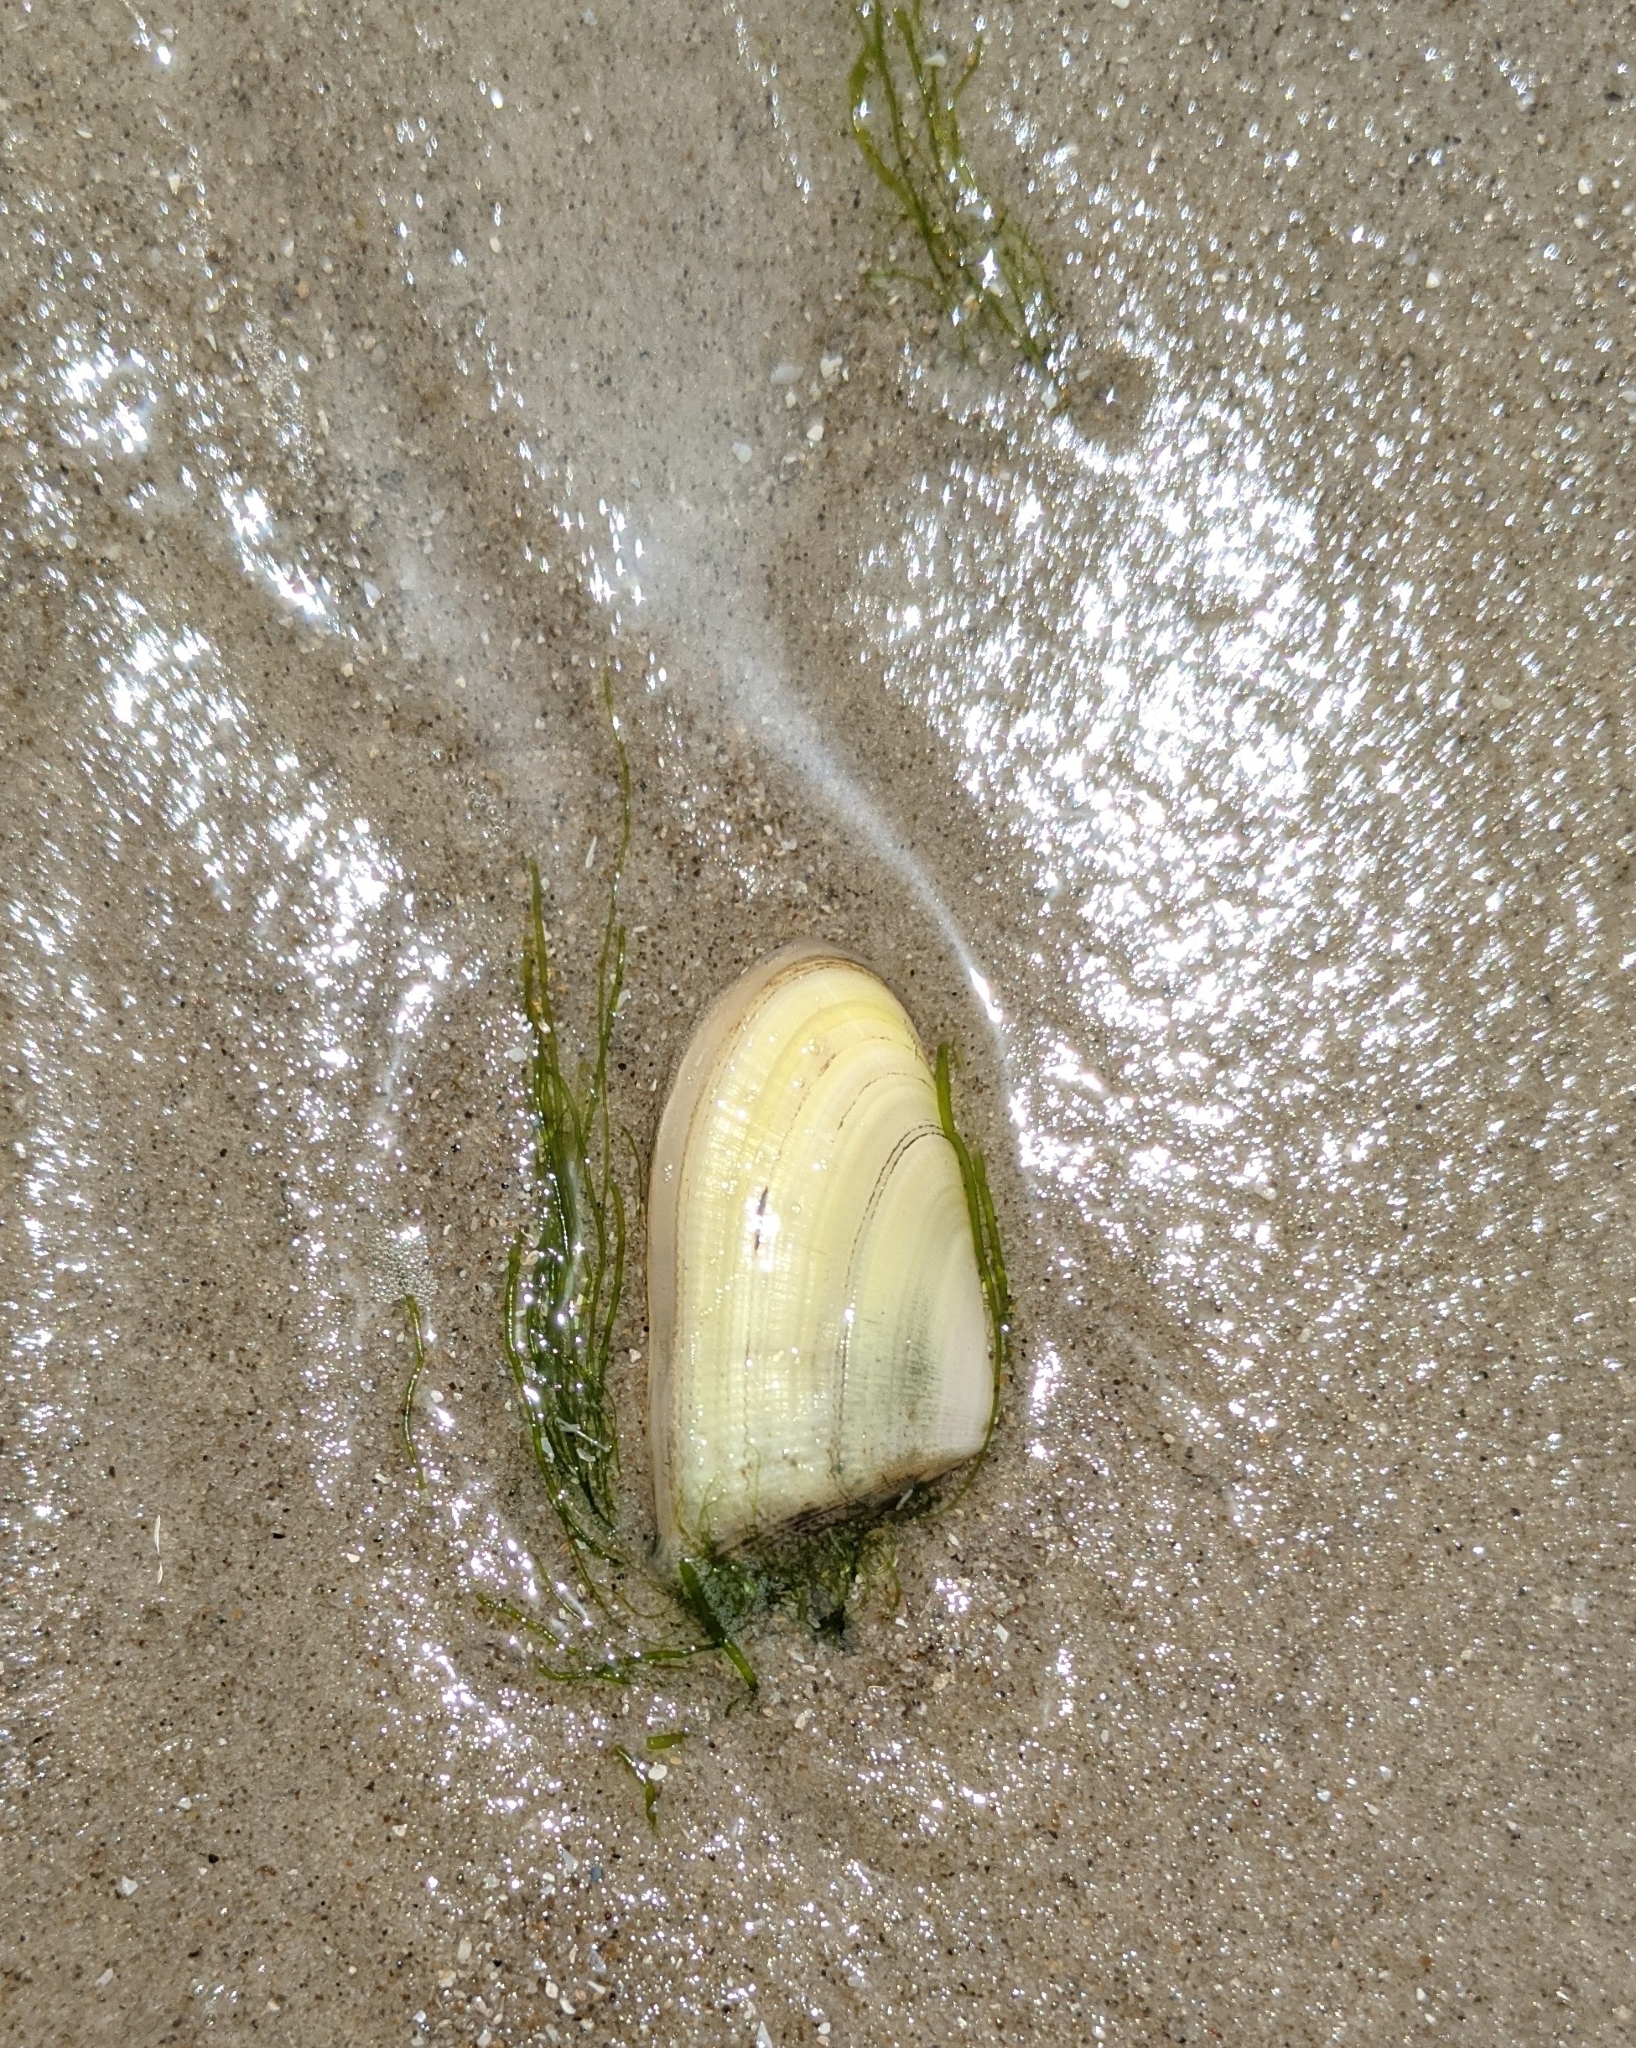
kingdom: Animalia
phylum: Mollusca
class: Bivalvia
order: Cardiida
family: Donacidae
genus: Donax
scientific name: Donax variabilis
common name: Butterfly shell
